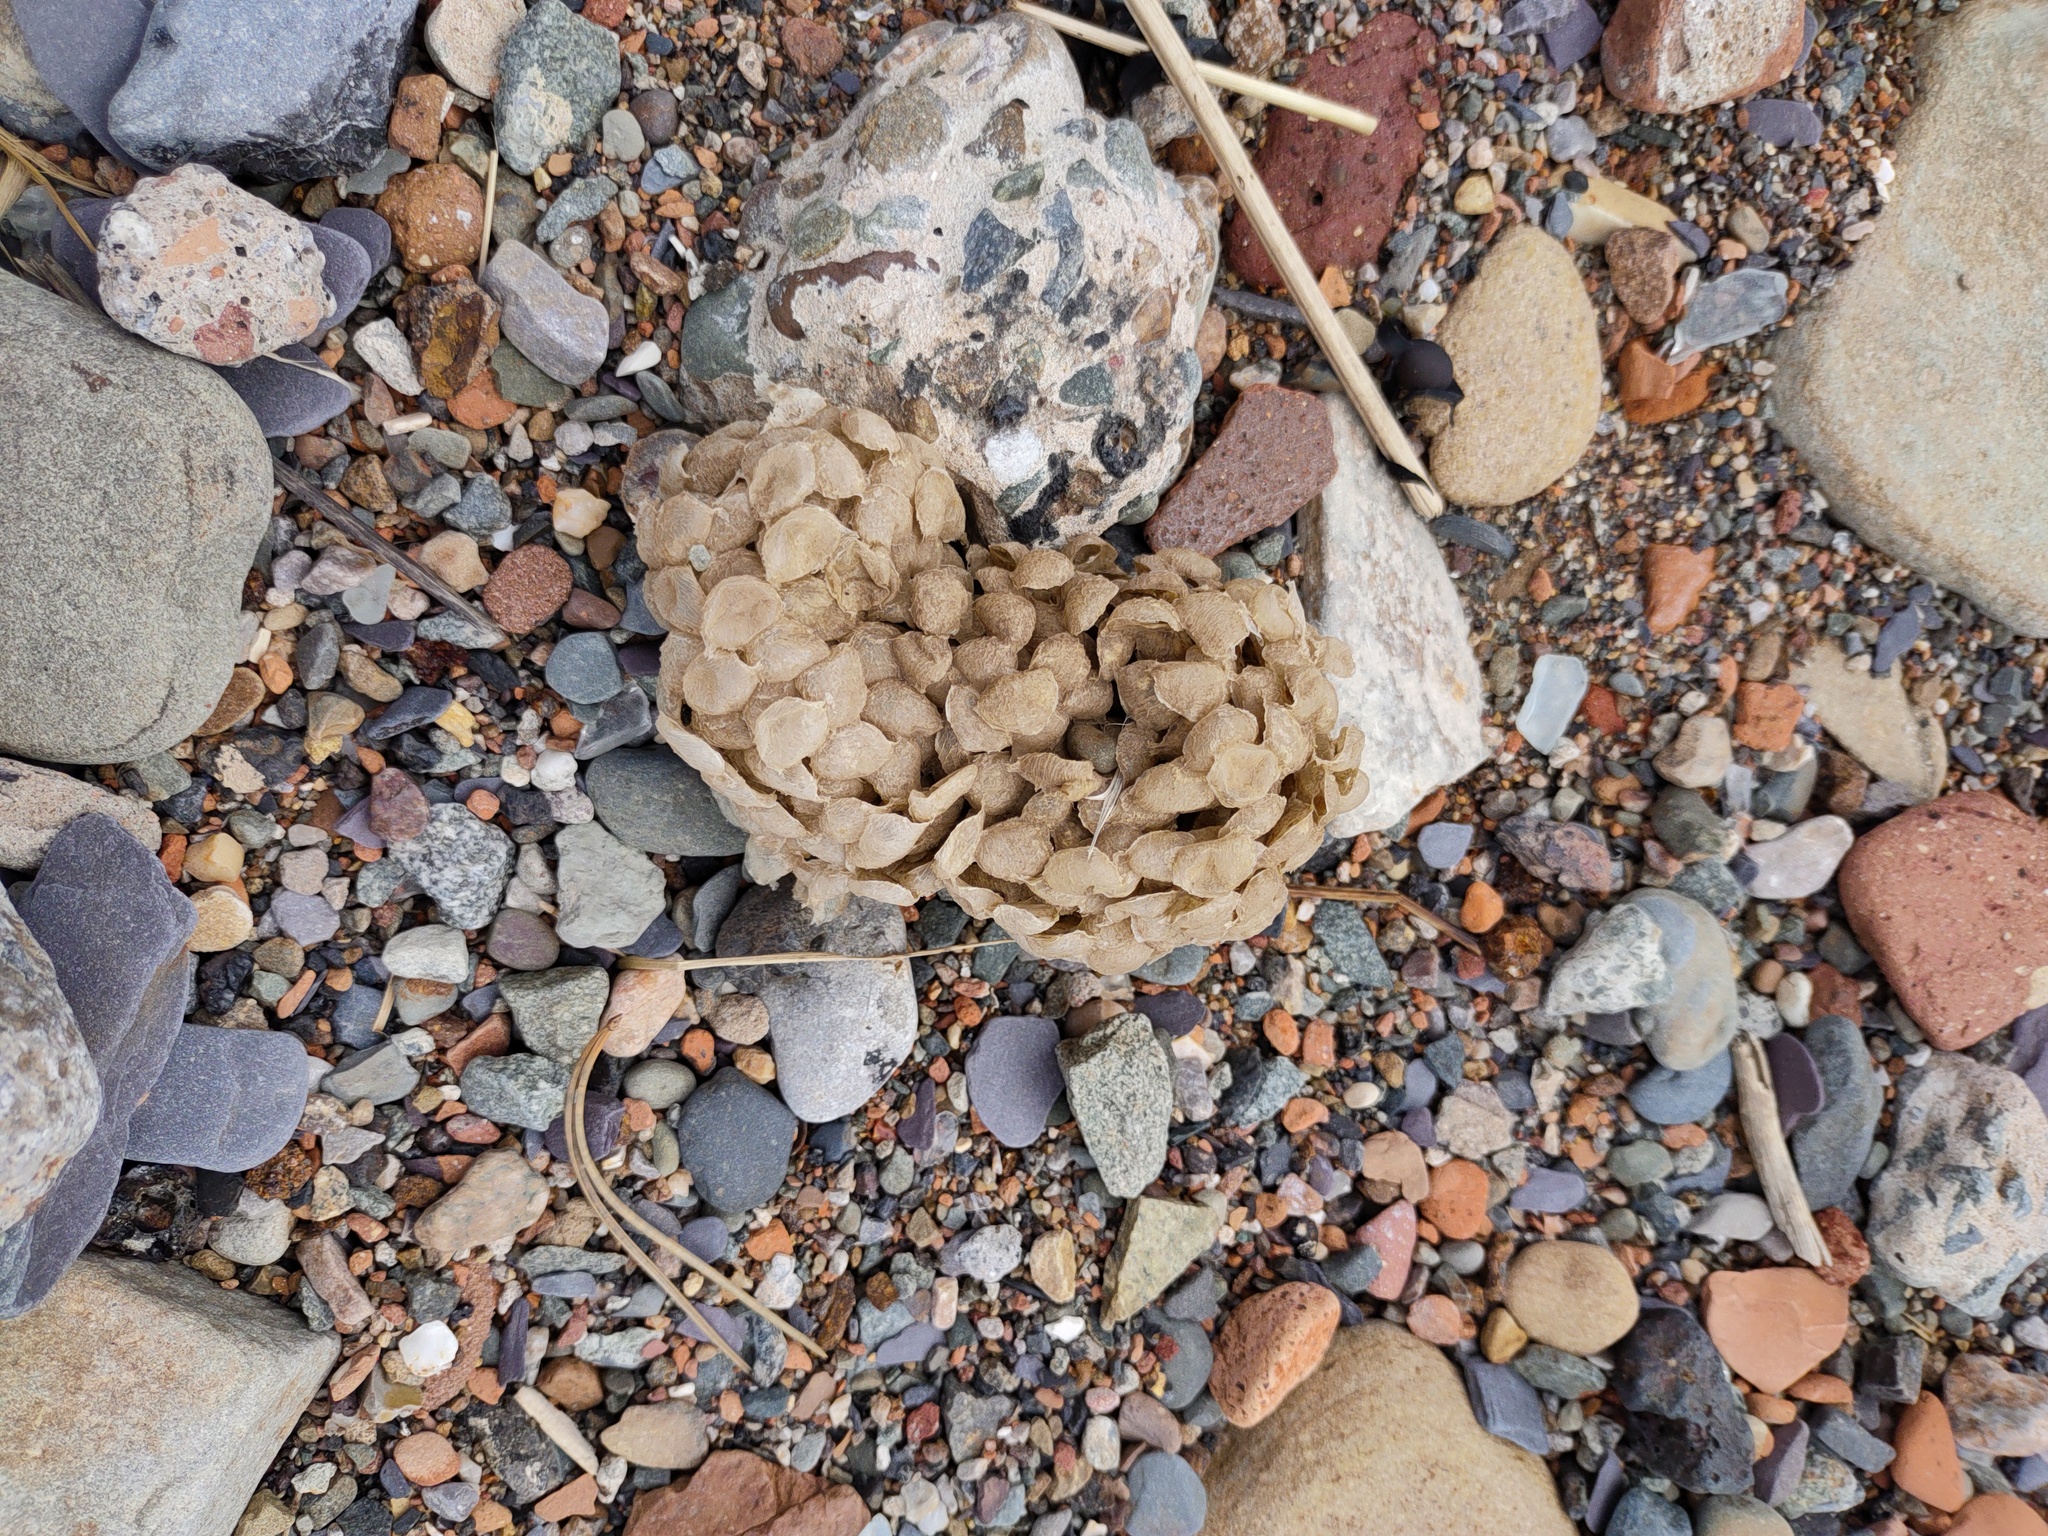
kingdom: Animalia
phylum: Mollusca
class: Gastropoda
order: Neogastropoda
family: Buccinidae
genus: Buccinum
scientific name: Buccinum undatum
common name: Common whelk
